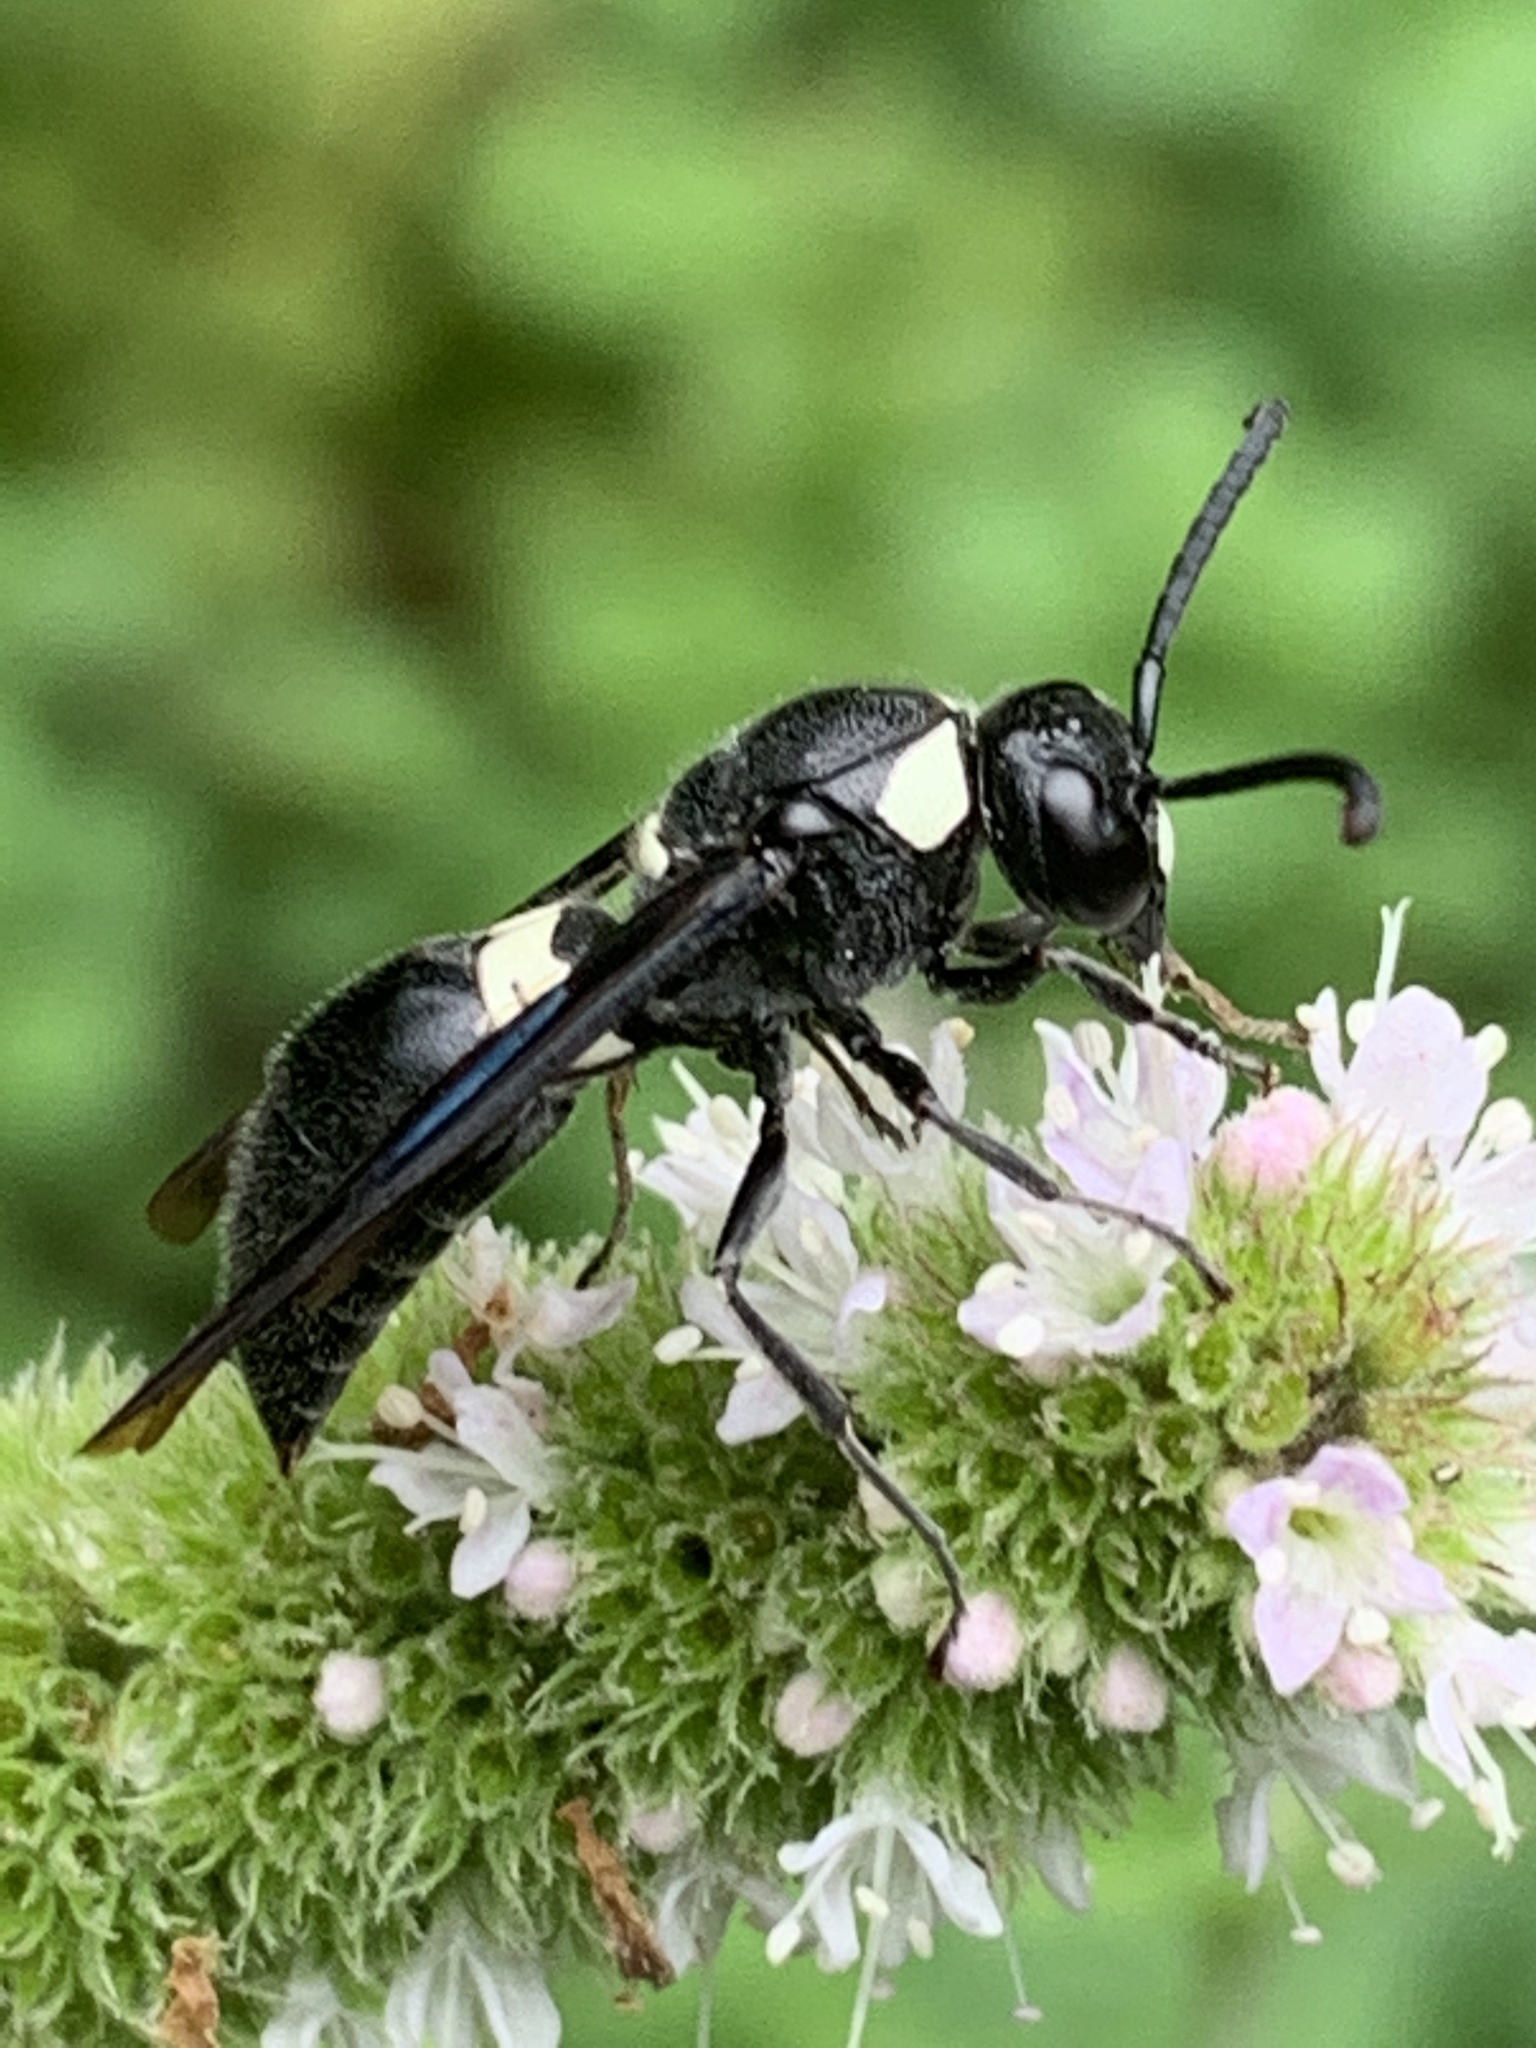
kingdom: Animalia
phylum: Arthropoda
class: Insecta
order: Hymenoptera
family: Eumenidae
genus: Monobia
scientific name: Monobia quadridens
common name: Four-toothed mason wasp
